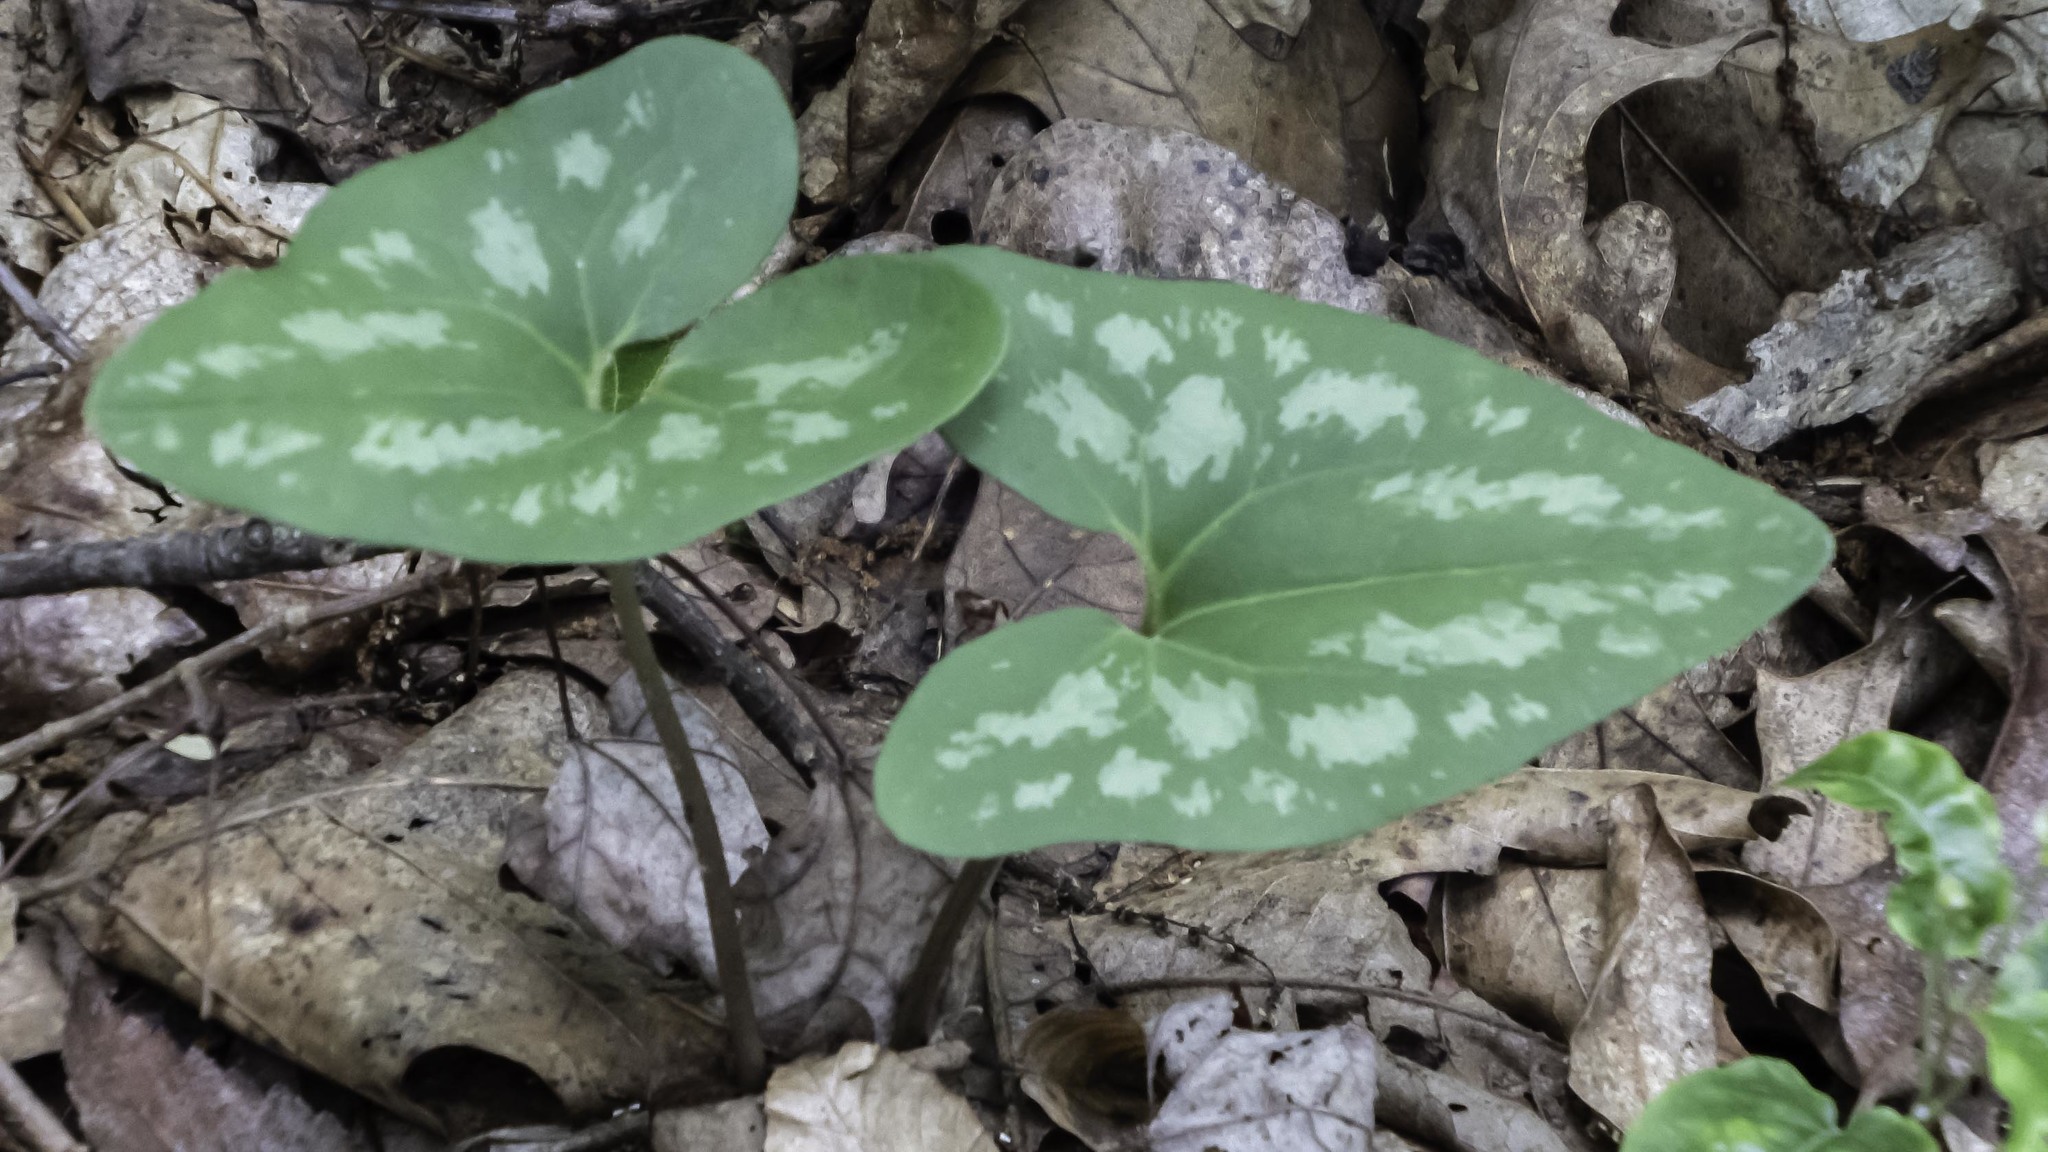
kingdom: Plantae
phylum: Tracheophyta
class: Magnoliopsida
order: Piperales
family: Aristolochiaceae
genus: Hexastylis
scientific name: Hexastylis arifolia
